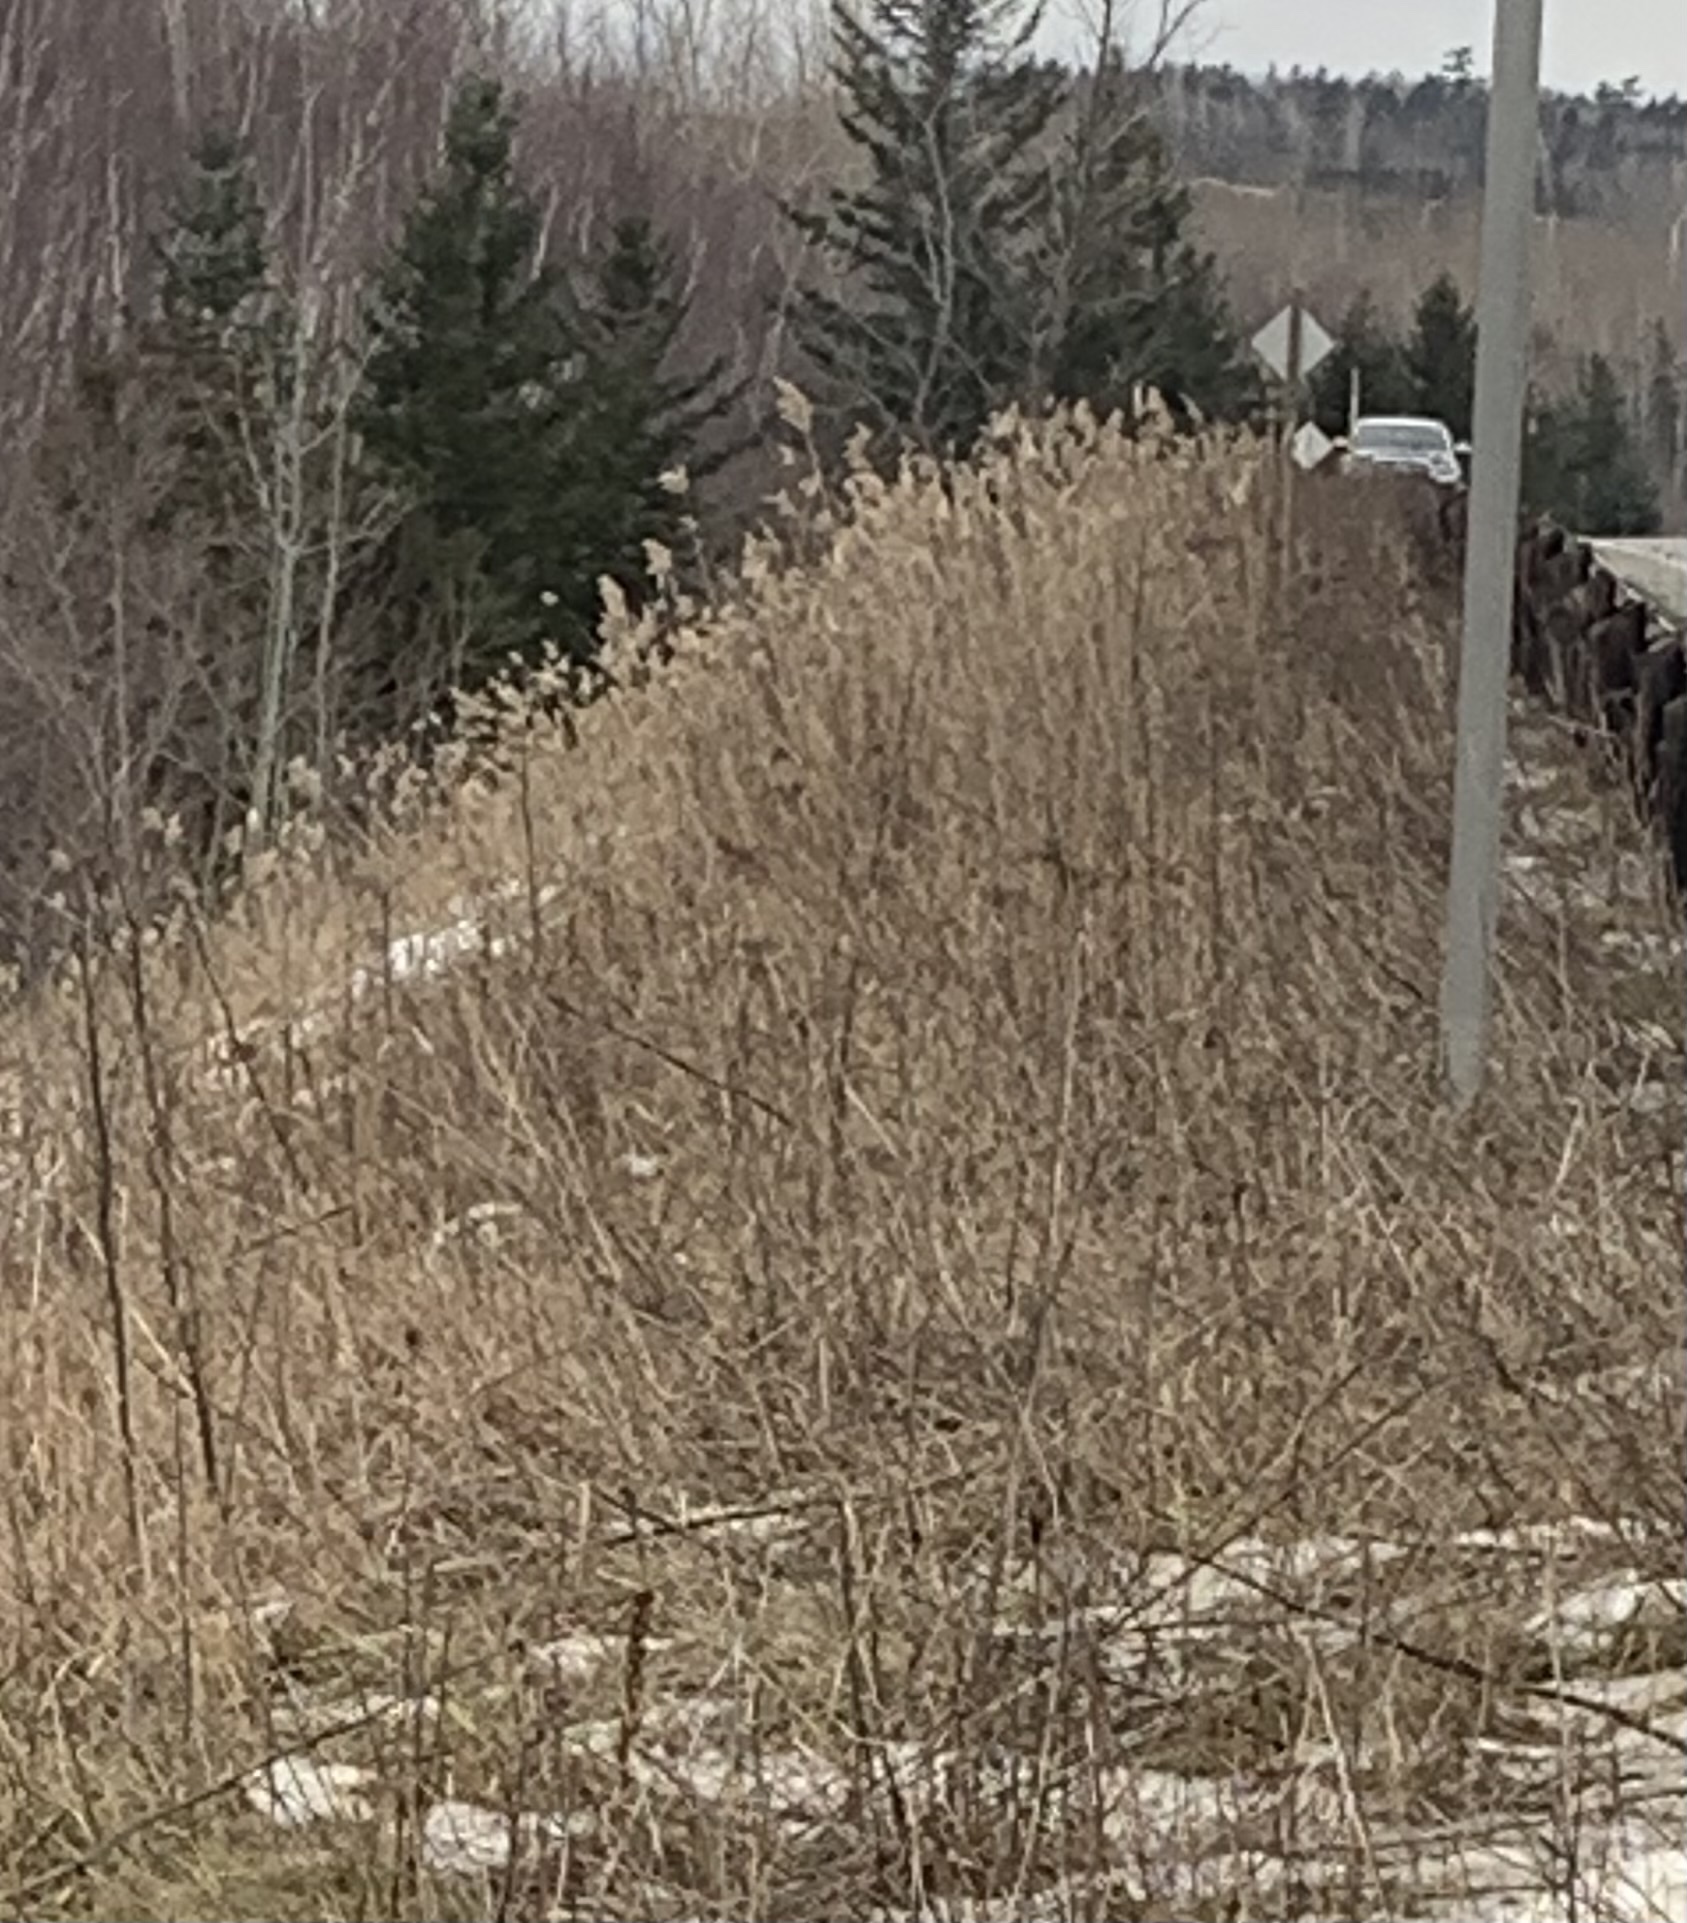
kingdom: Plantae
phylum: Tracheophyta
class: Liliopsida
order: Poales
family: Poaceae
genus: Phragmites
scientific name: Phragmites australis
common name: Common reed
